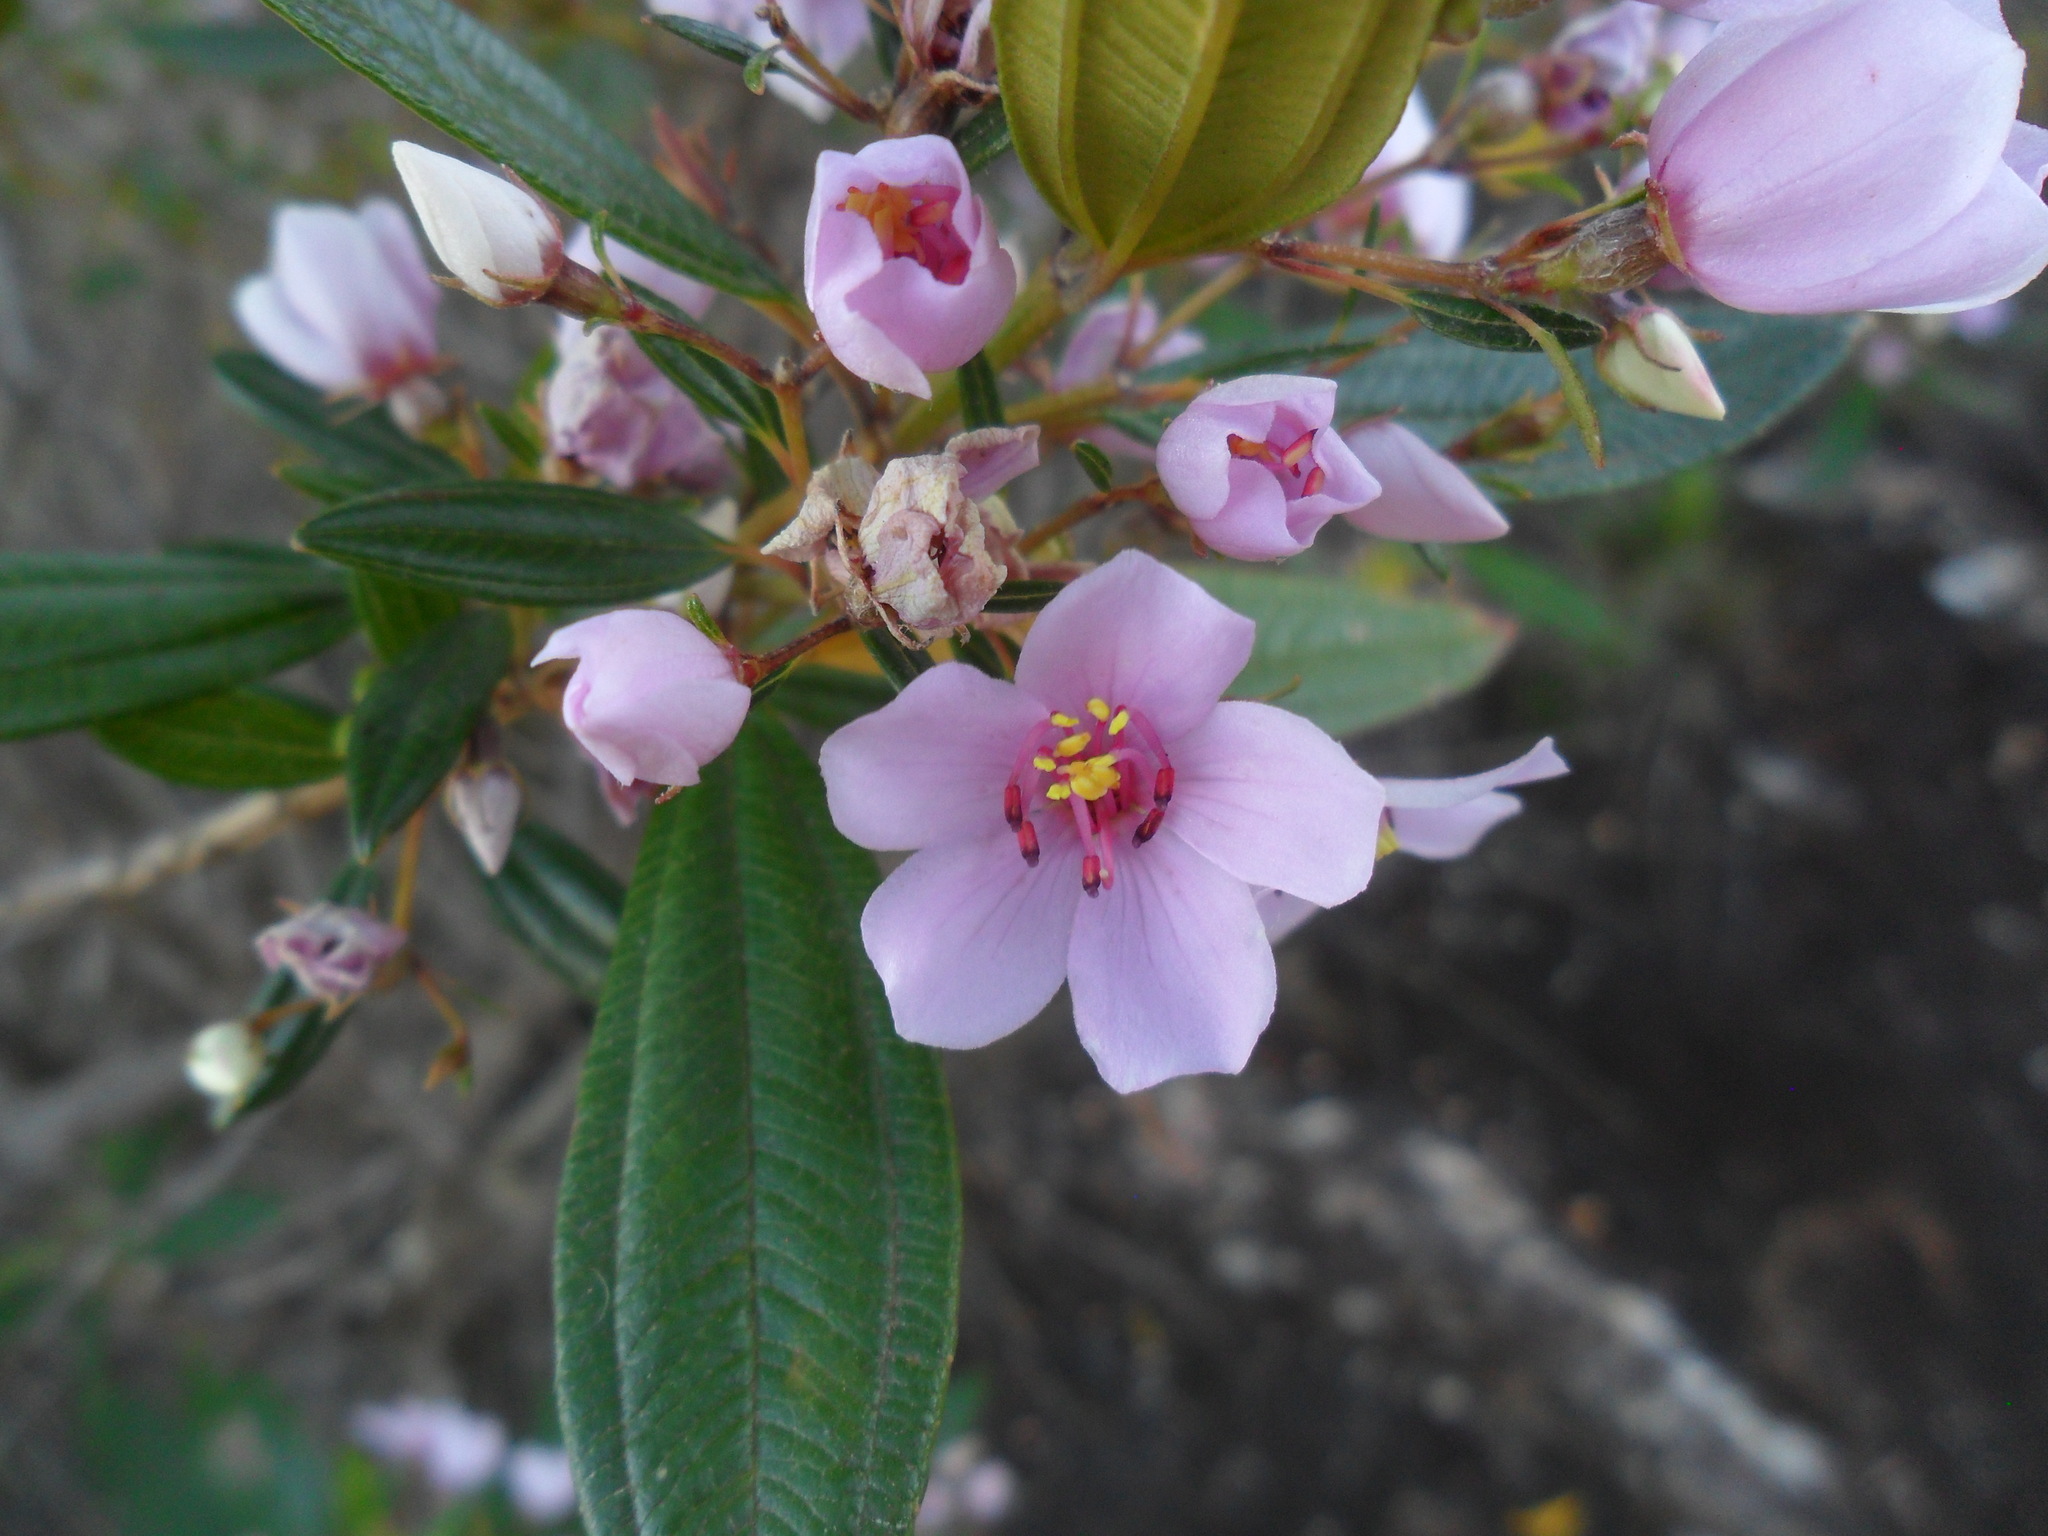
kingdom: Plantae
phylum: Tracheophyta
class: Magnoliopsida
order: Myrtales
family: Melastomataceae
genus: Microlicia
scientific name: Microlicia parviflora
